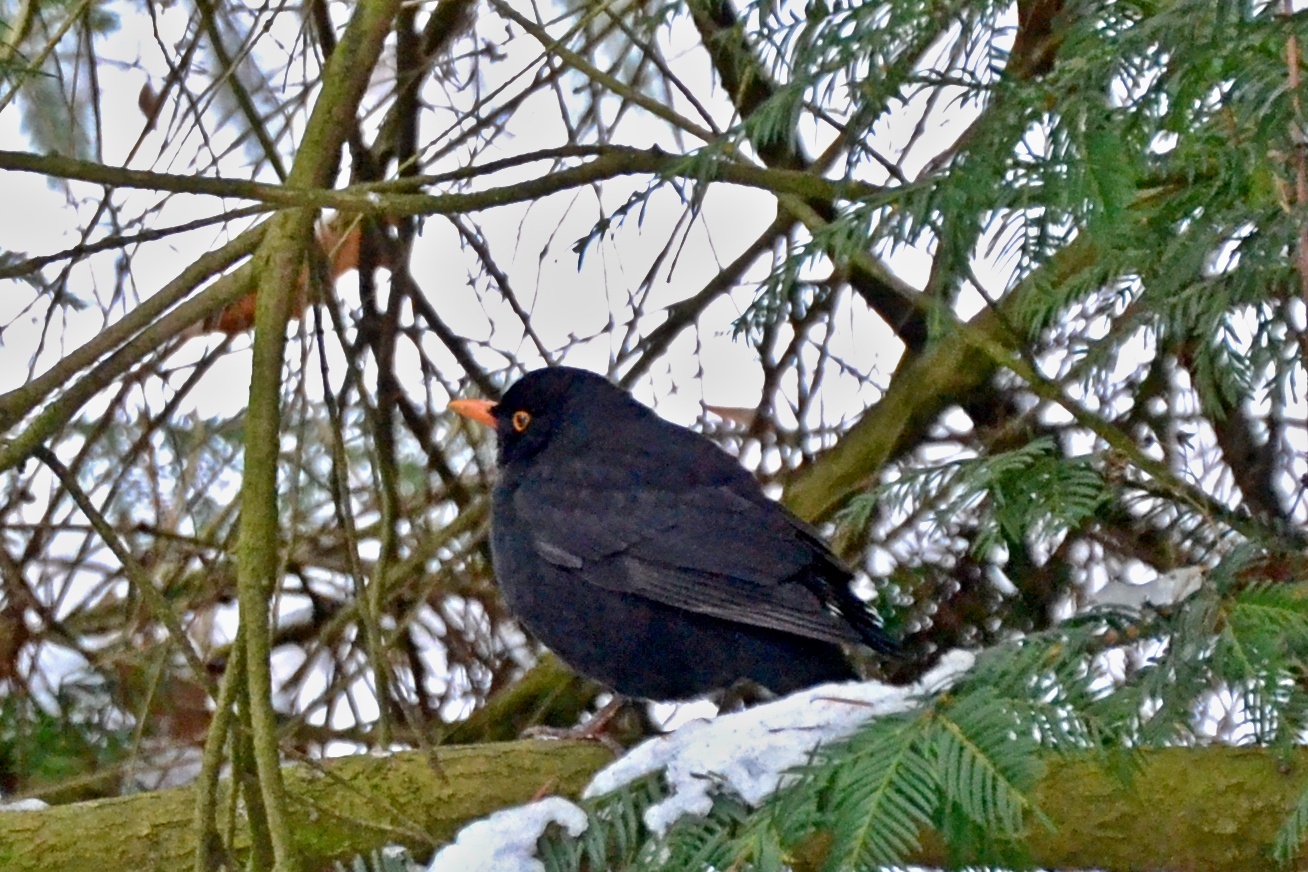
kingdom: Animalia
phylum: Chordata
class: Aves
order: Passeriformes
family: Turdidae
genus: Turdus
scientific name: Turdus merula
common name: Common blackbird
